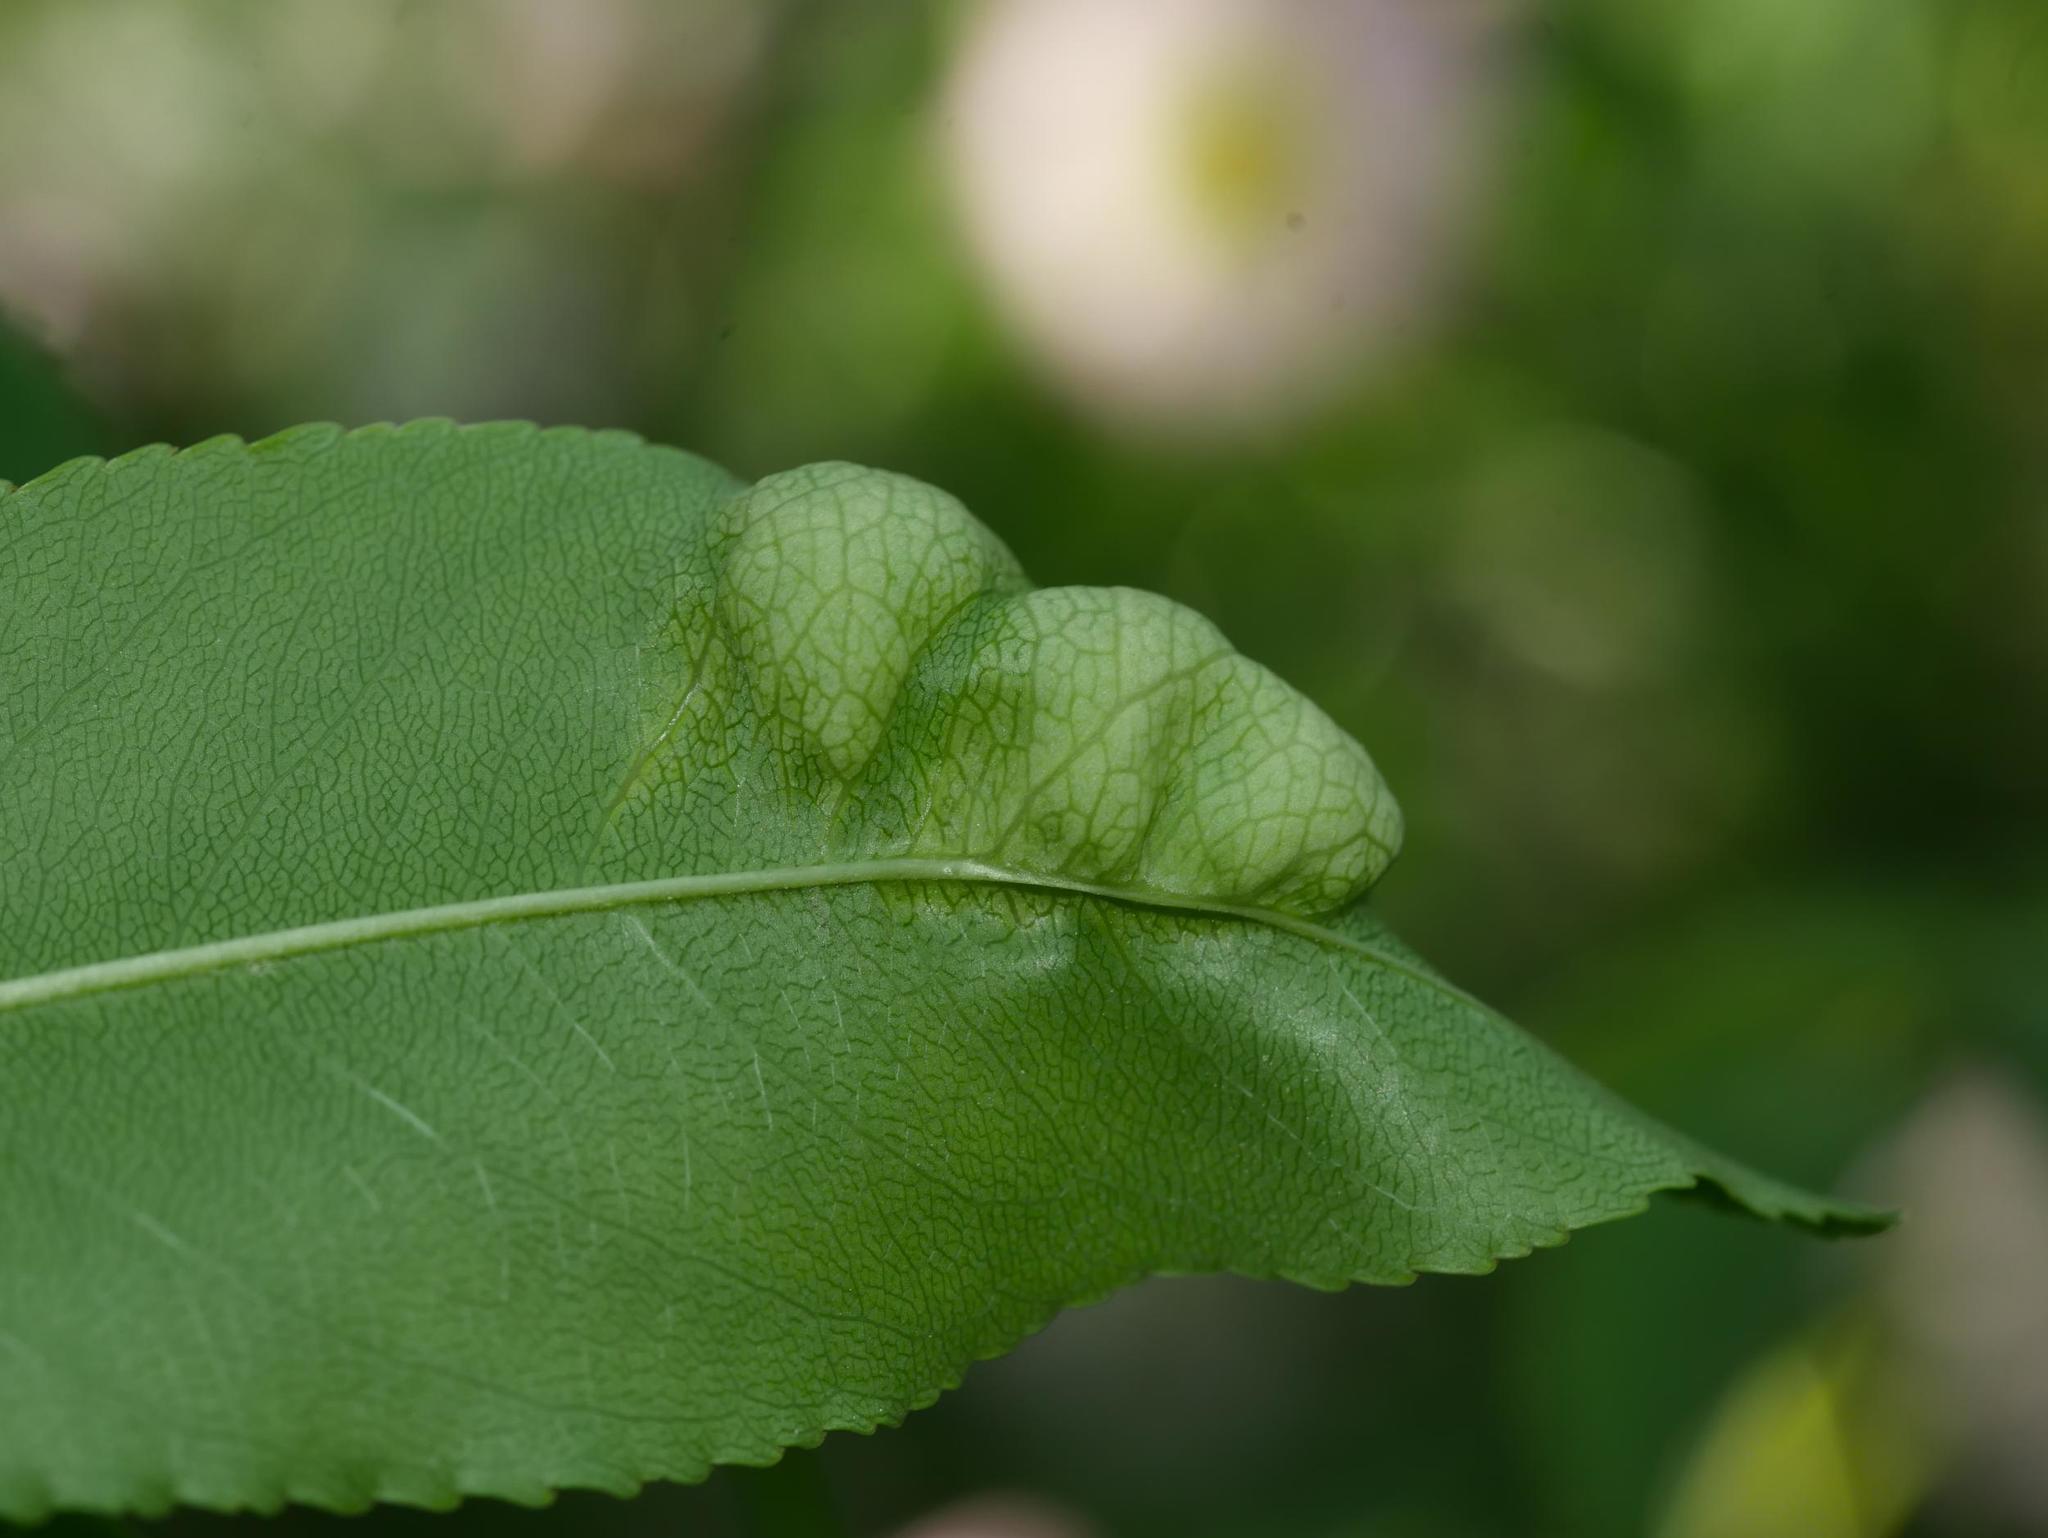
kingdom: Fungi
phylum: Ascomycota
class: Taphrinomycetes
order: Taphrinales
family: Taphrinaceae
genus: Taphrina
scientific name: Taphrina farlowii
